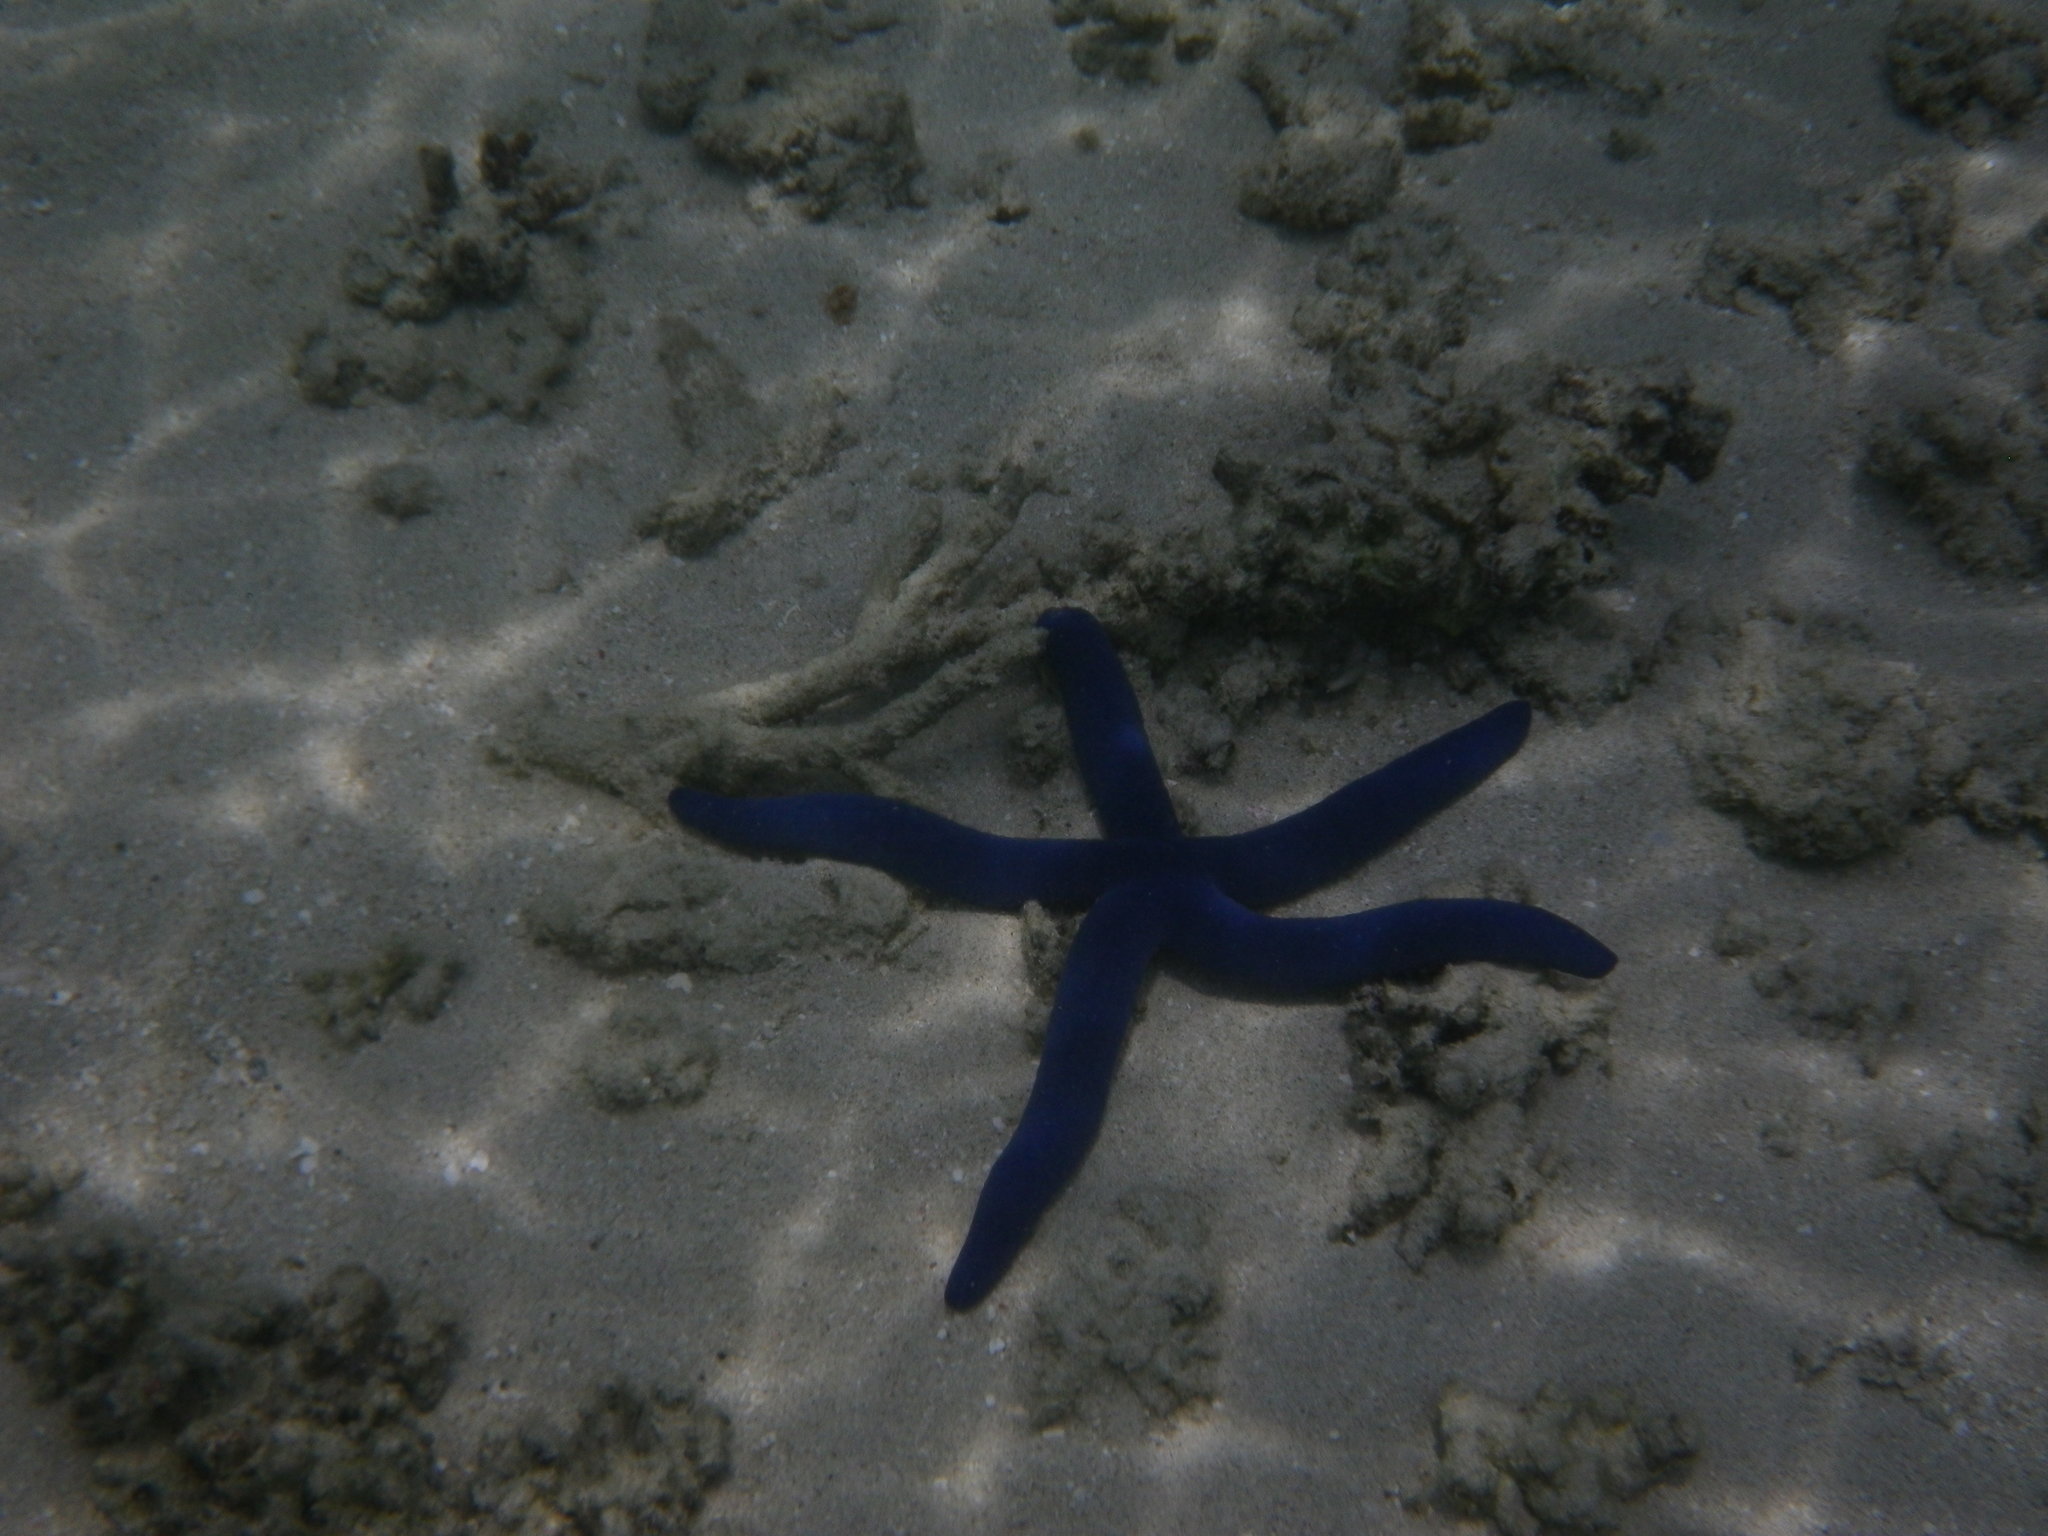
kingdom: Animalia
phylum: Echinodermata
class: Asteroidea
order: Valvatida
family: Ophidiasteridae
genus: Linckia
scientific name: Linckia laevigata
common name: Azure sea star
